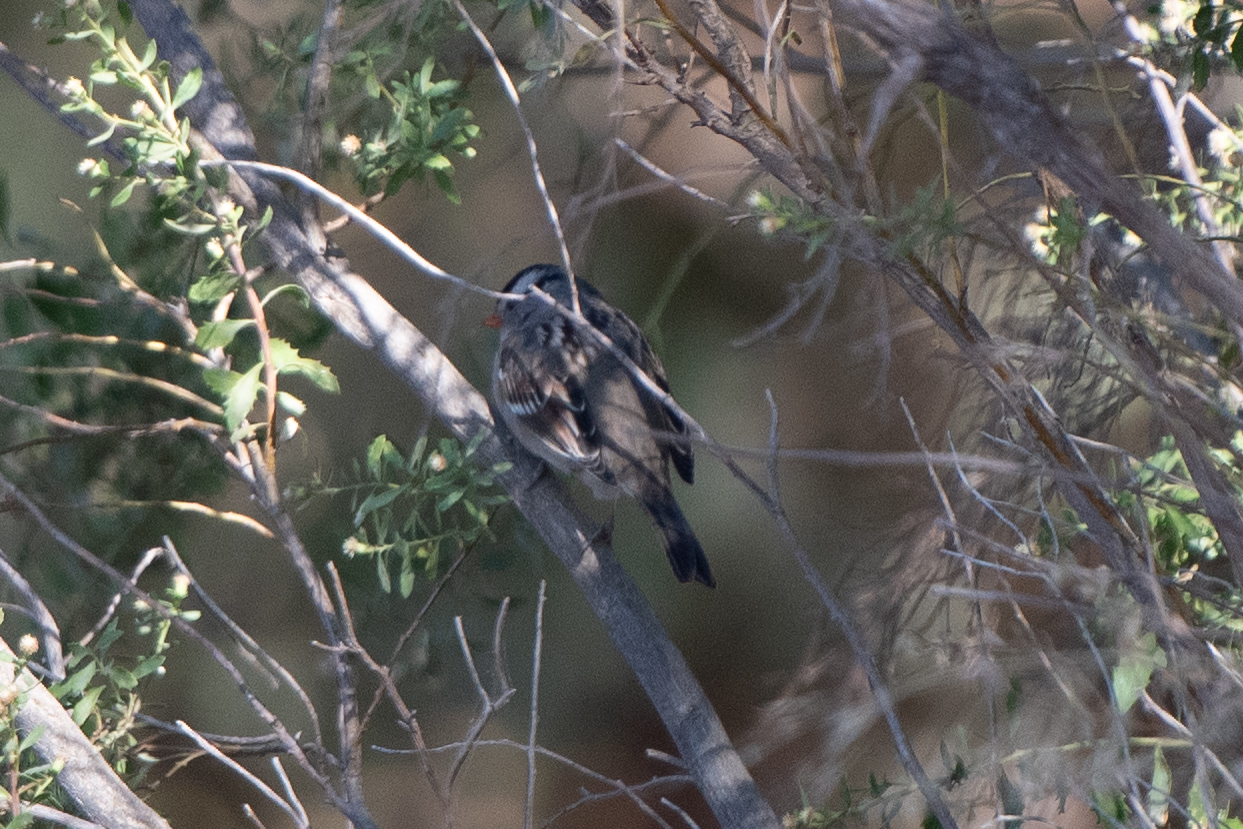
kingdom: Animalia
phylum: Chordata
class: Aves
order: Passeriformes
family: Passerellidae
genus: Zonotrichia
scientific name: Zonotrichia leucophrys
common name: White-crowned sparrow
